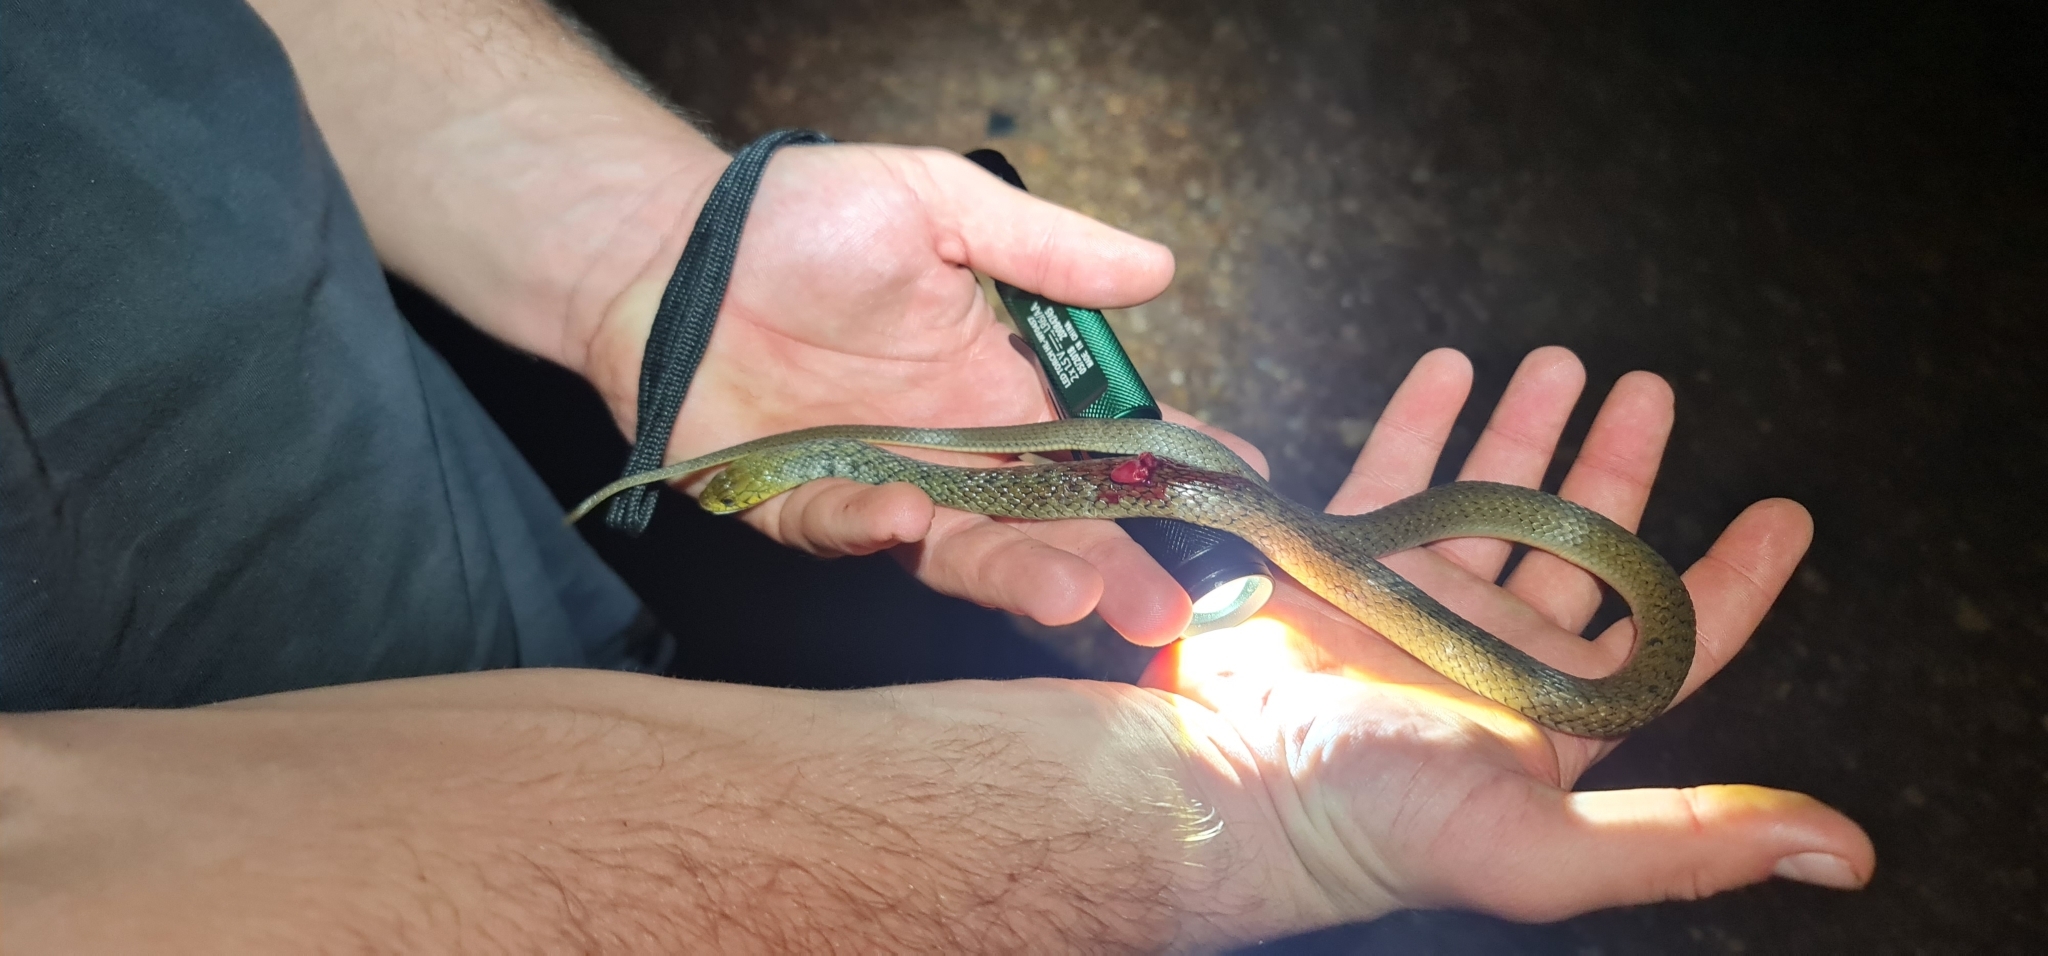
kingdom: Animalia
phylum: Chordata
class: Squamata
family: Colubridae
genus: Tropidonophis
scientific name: Tropidonophis mairii
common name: Common keelback
